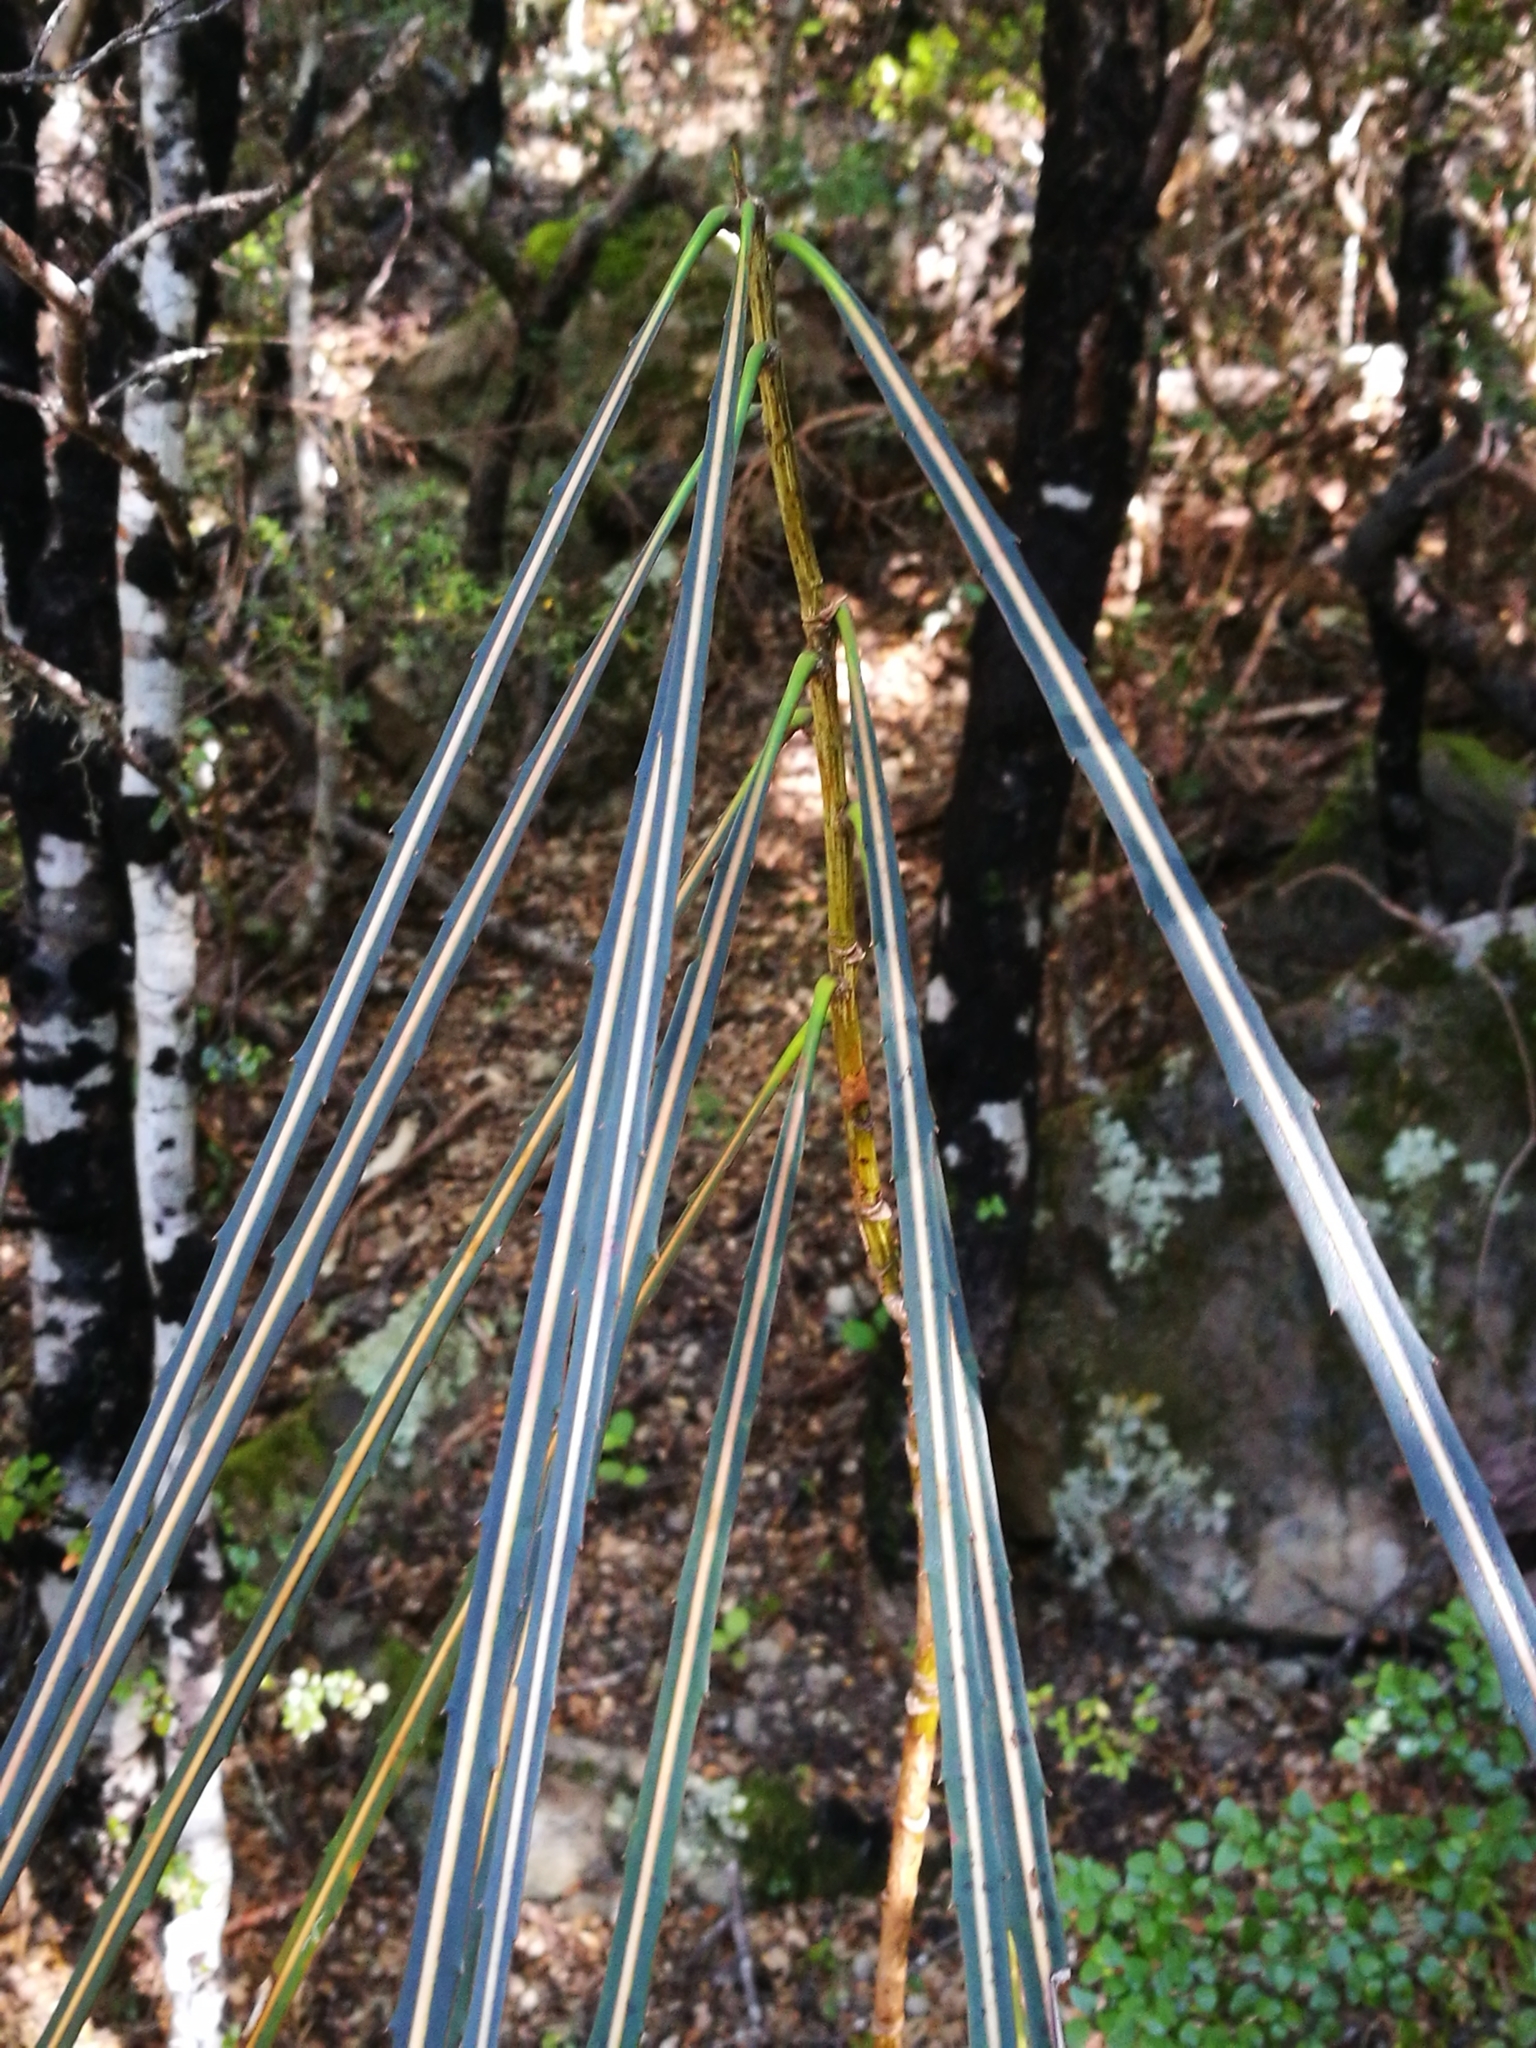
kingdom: Plantae
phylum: Tracheophyta
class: Magnoliopsida
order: Apiales
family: Araliaceae
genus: Pseudopanax
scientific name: Pseudopanax crassifolius
